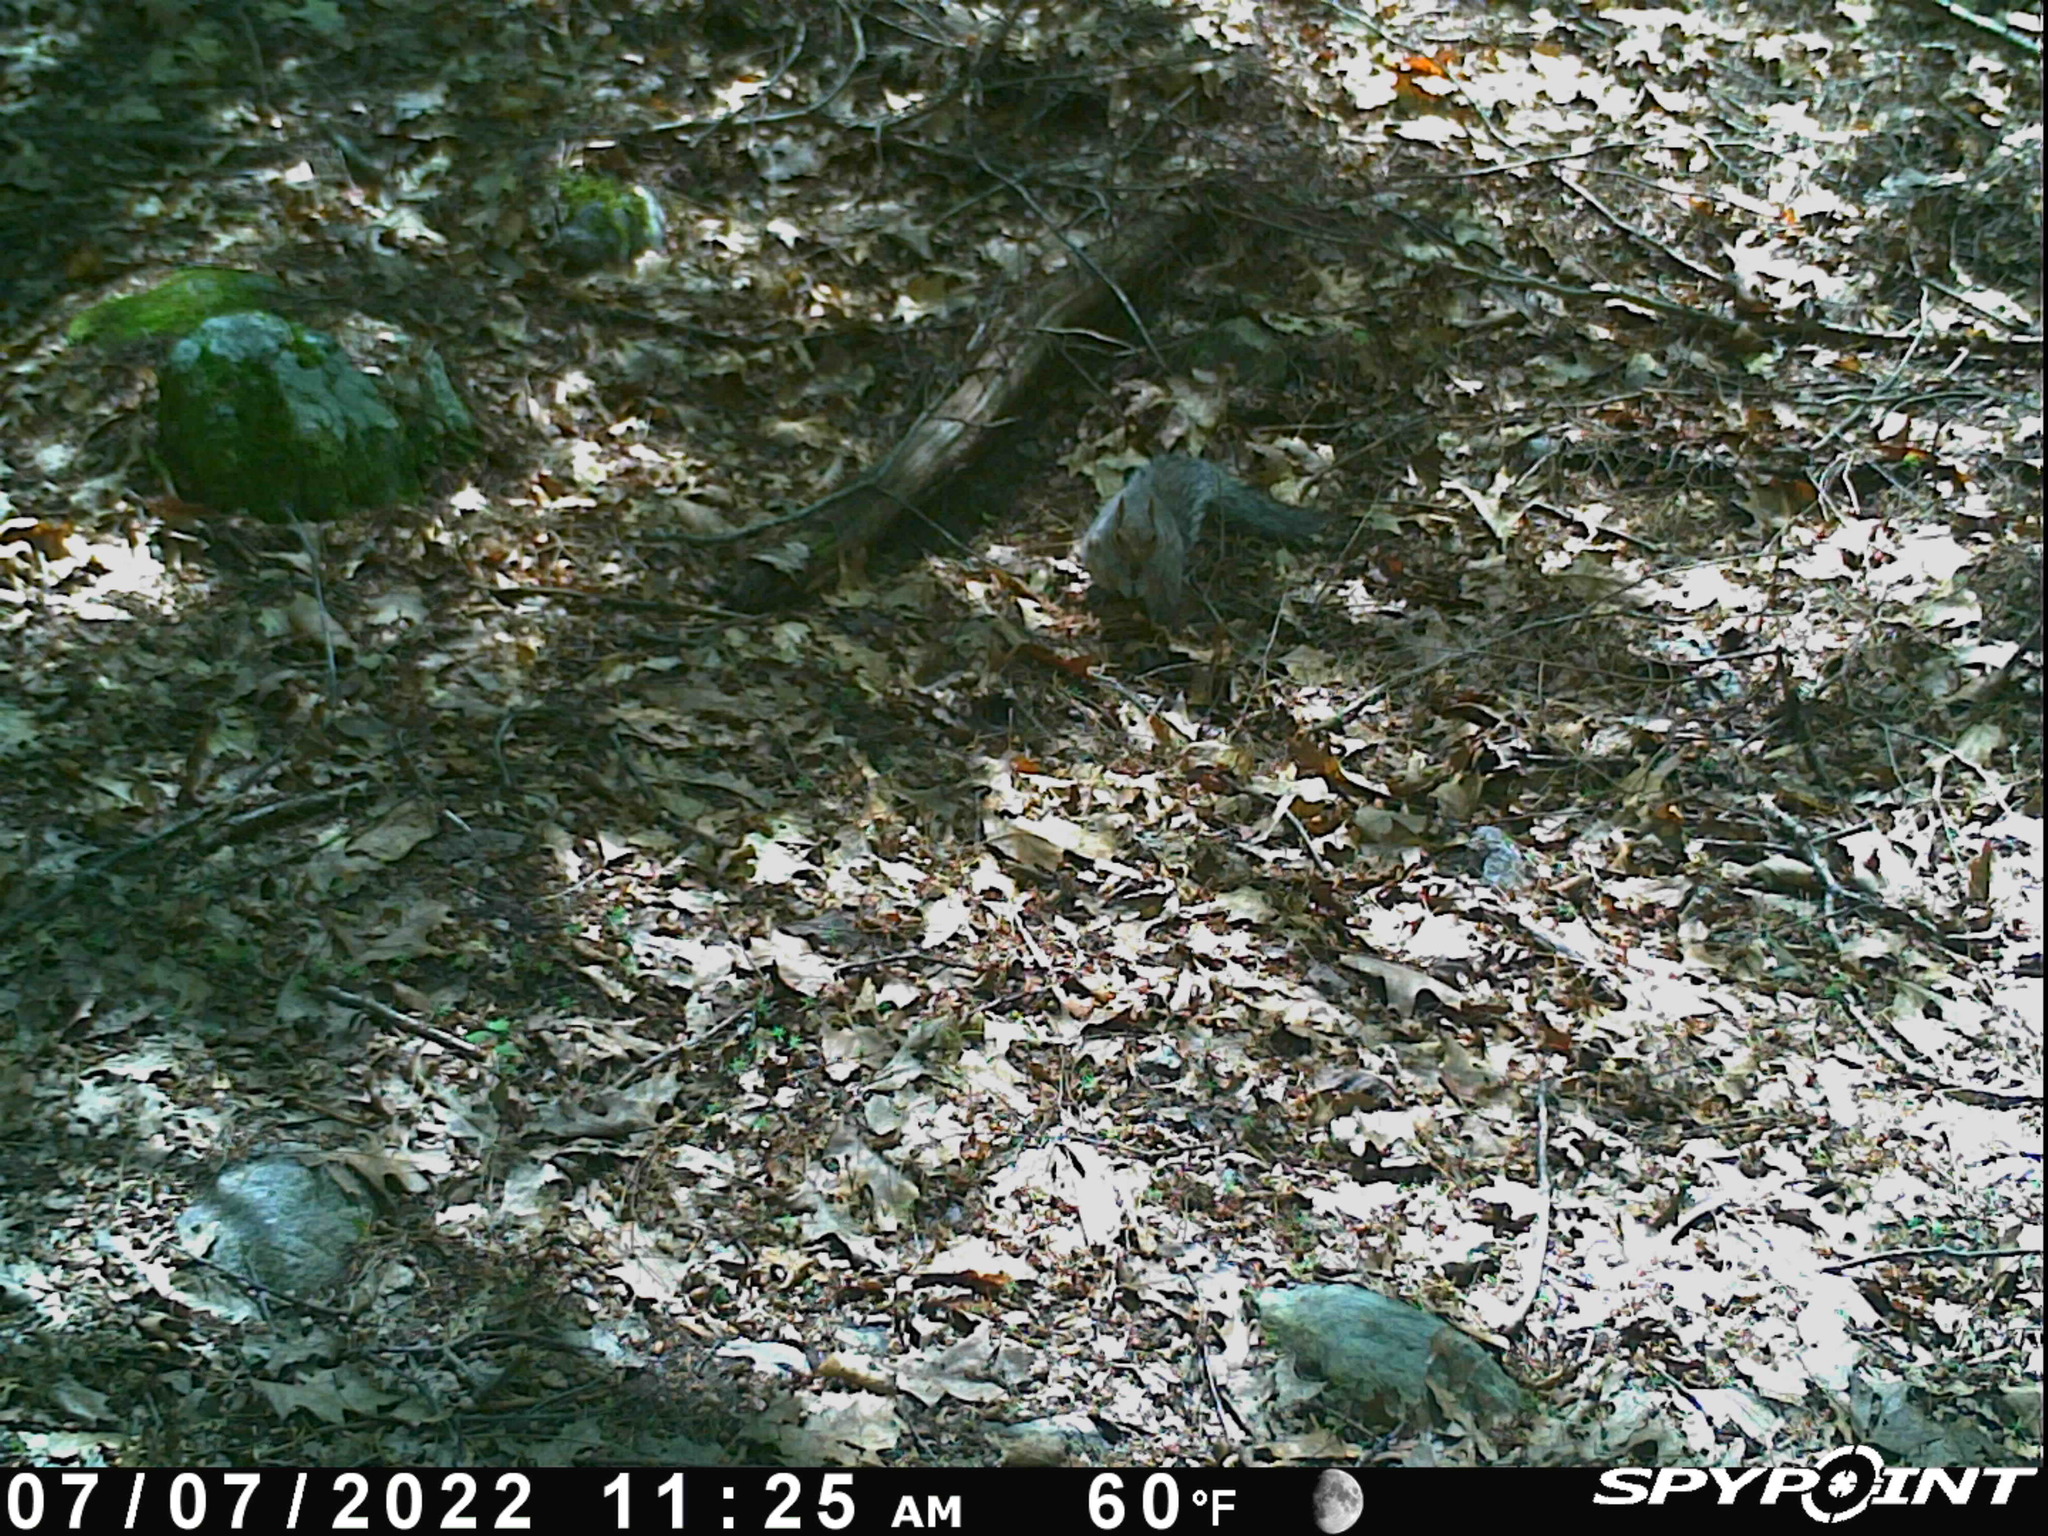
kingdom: Animalia
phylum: Chordata
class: Mammalia
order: Rodentia
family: Sciuridae
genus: Sciurus
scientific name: Sciurus carolinensis
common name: Eastern gray squirrel
